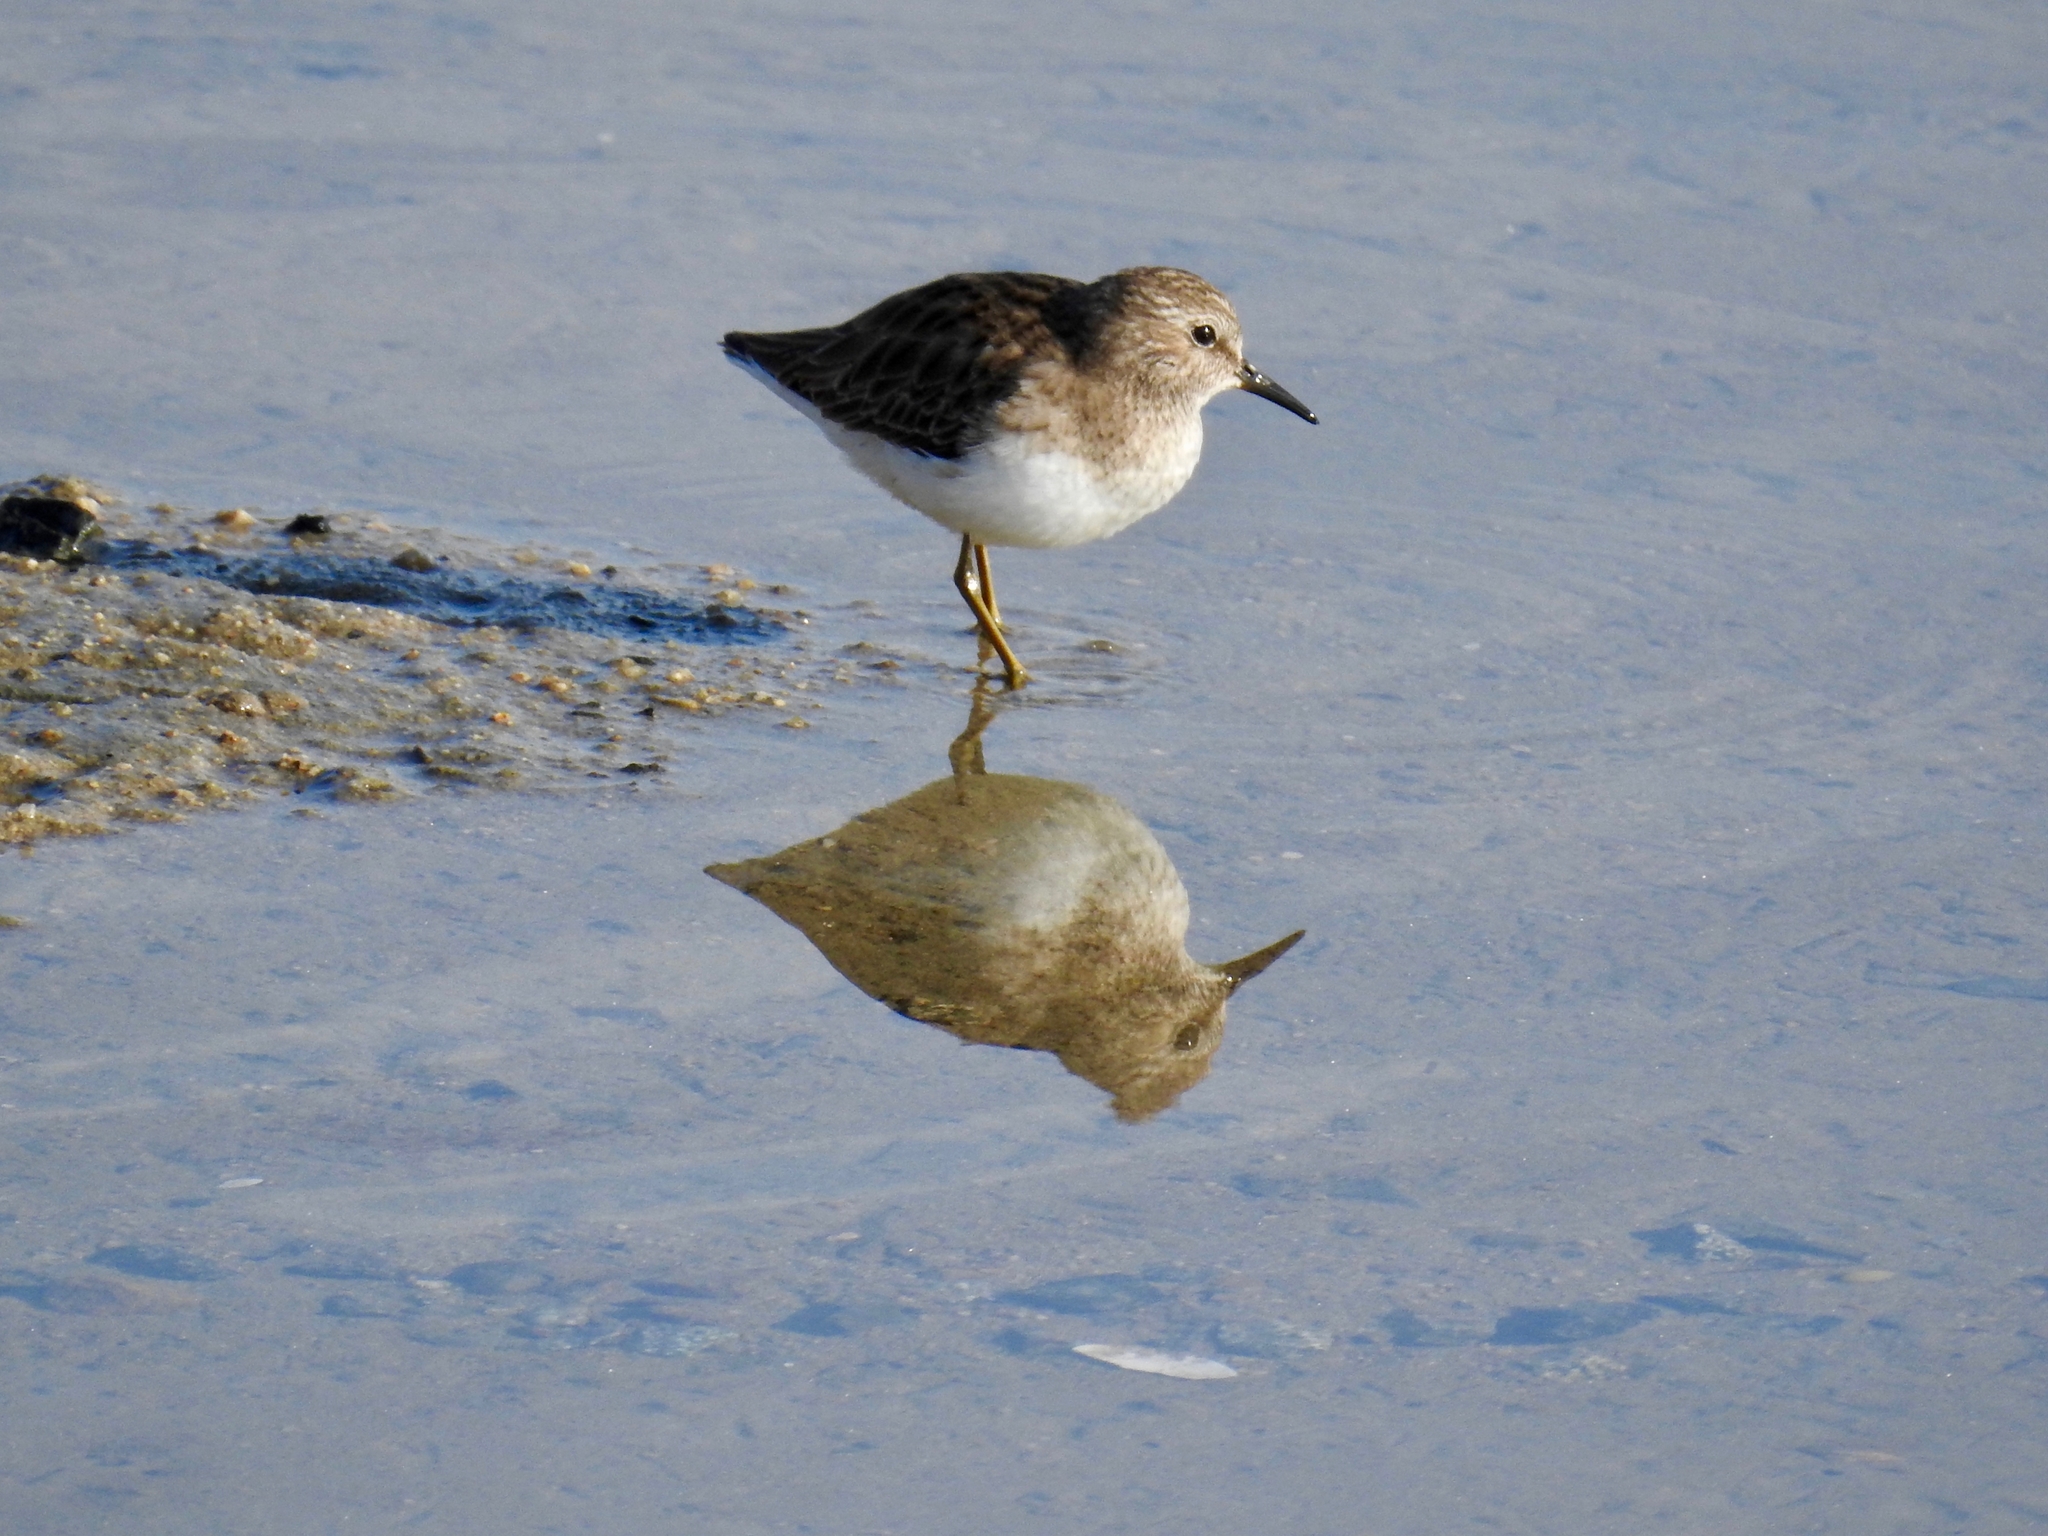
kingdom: Animalia
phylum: Chordata
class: Aves
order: Charadriiformes
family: Scolopacidae
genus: Calidris
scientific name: Calidris minutilla
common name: Least sandpiper
